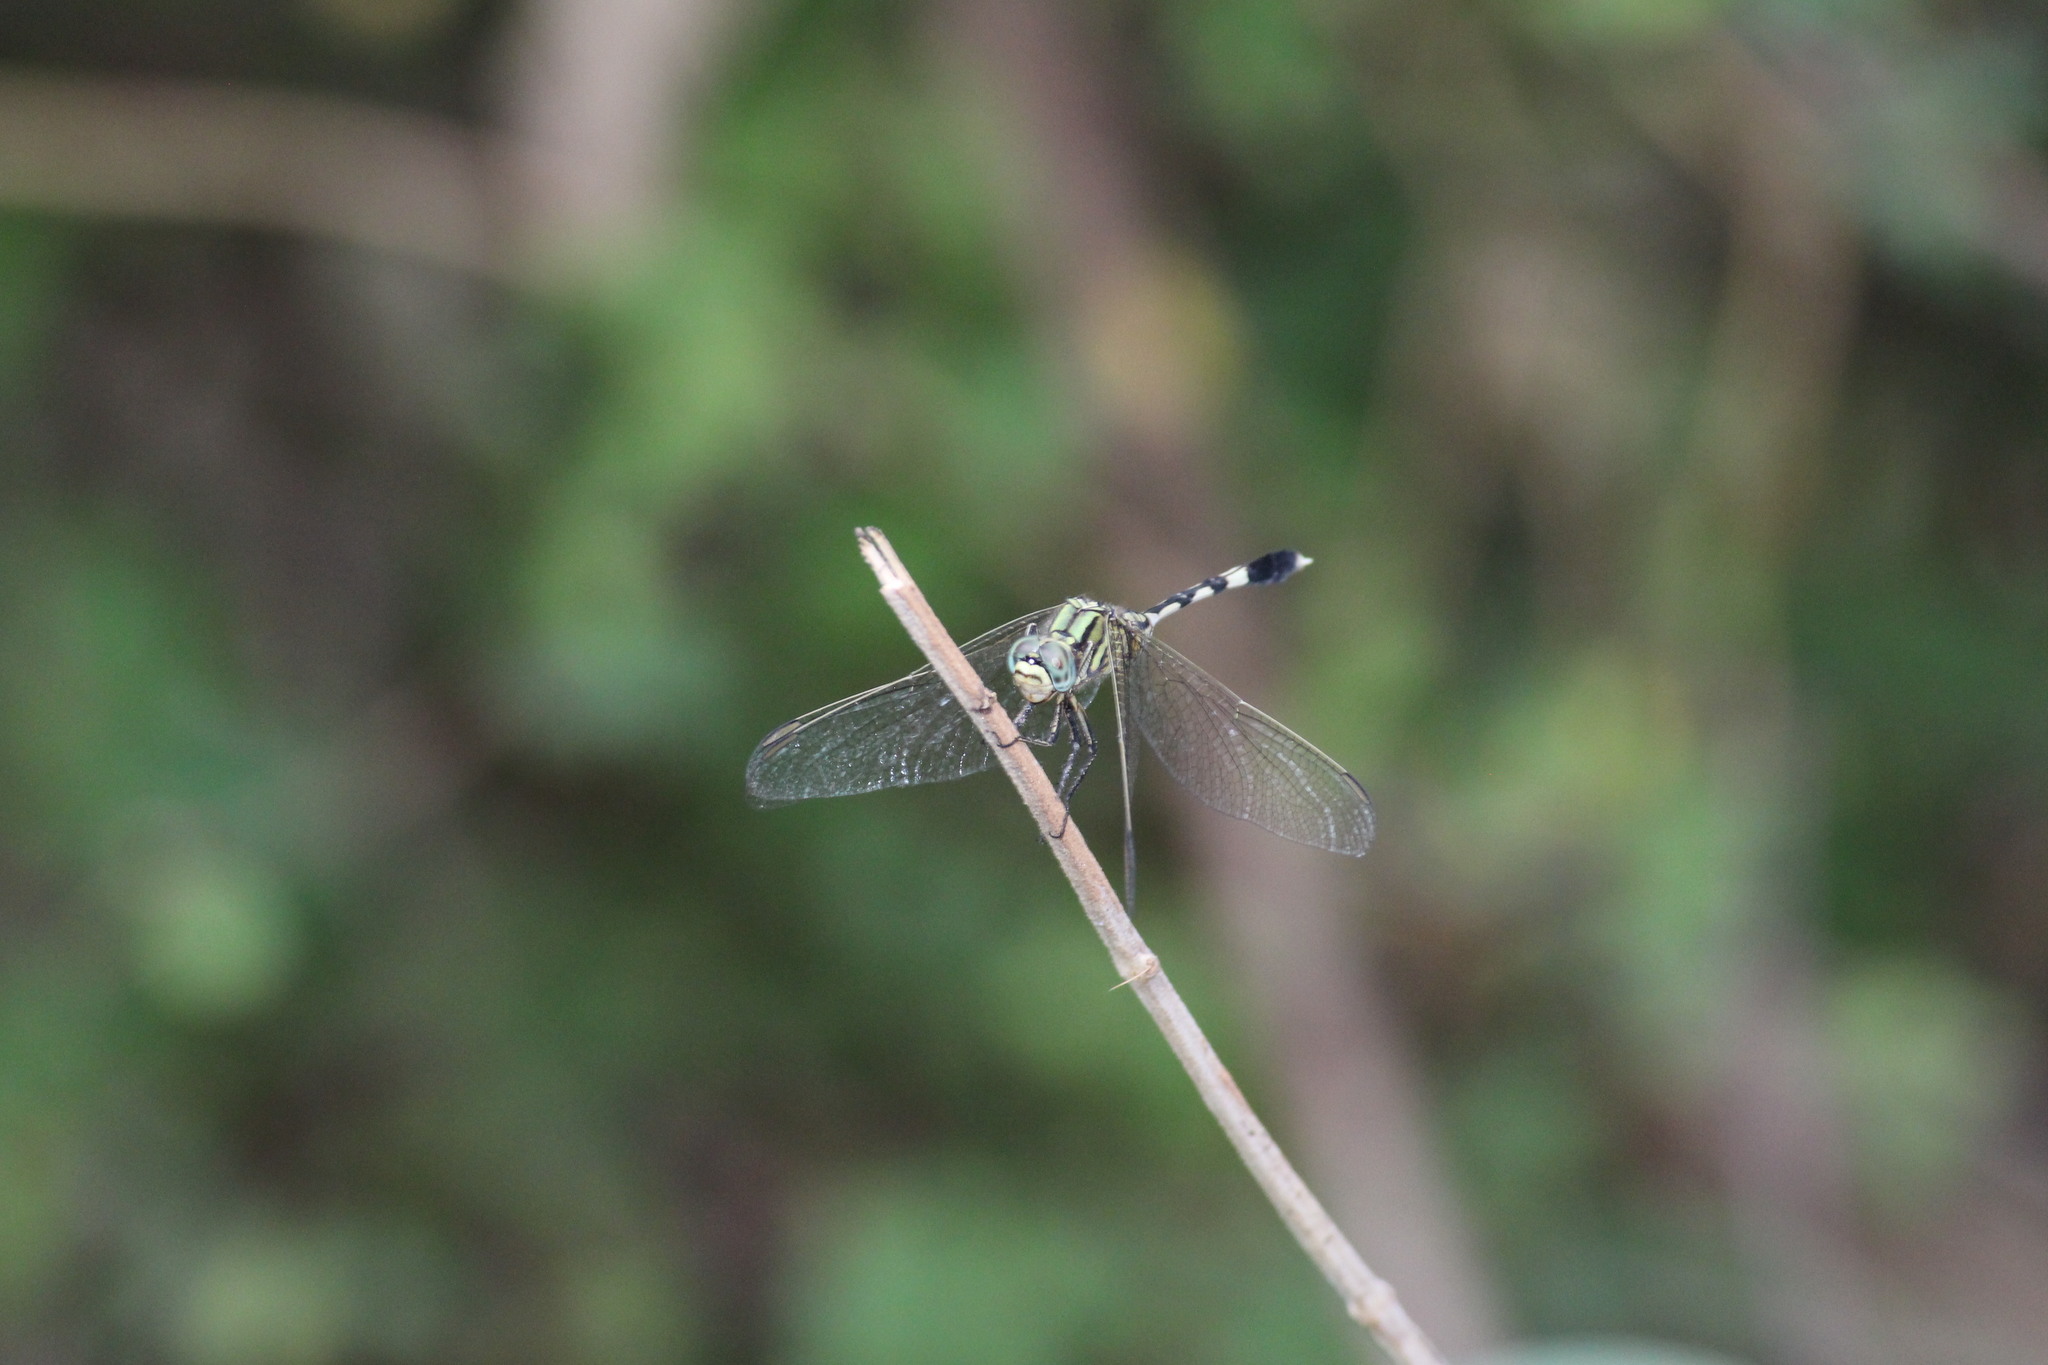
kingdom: Animalia
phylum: Arthropoda
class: Insecta
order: Odonata
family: Libellulidae
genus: Orthetrum
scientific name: Orthetrum sabina
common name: Slender skimmer
